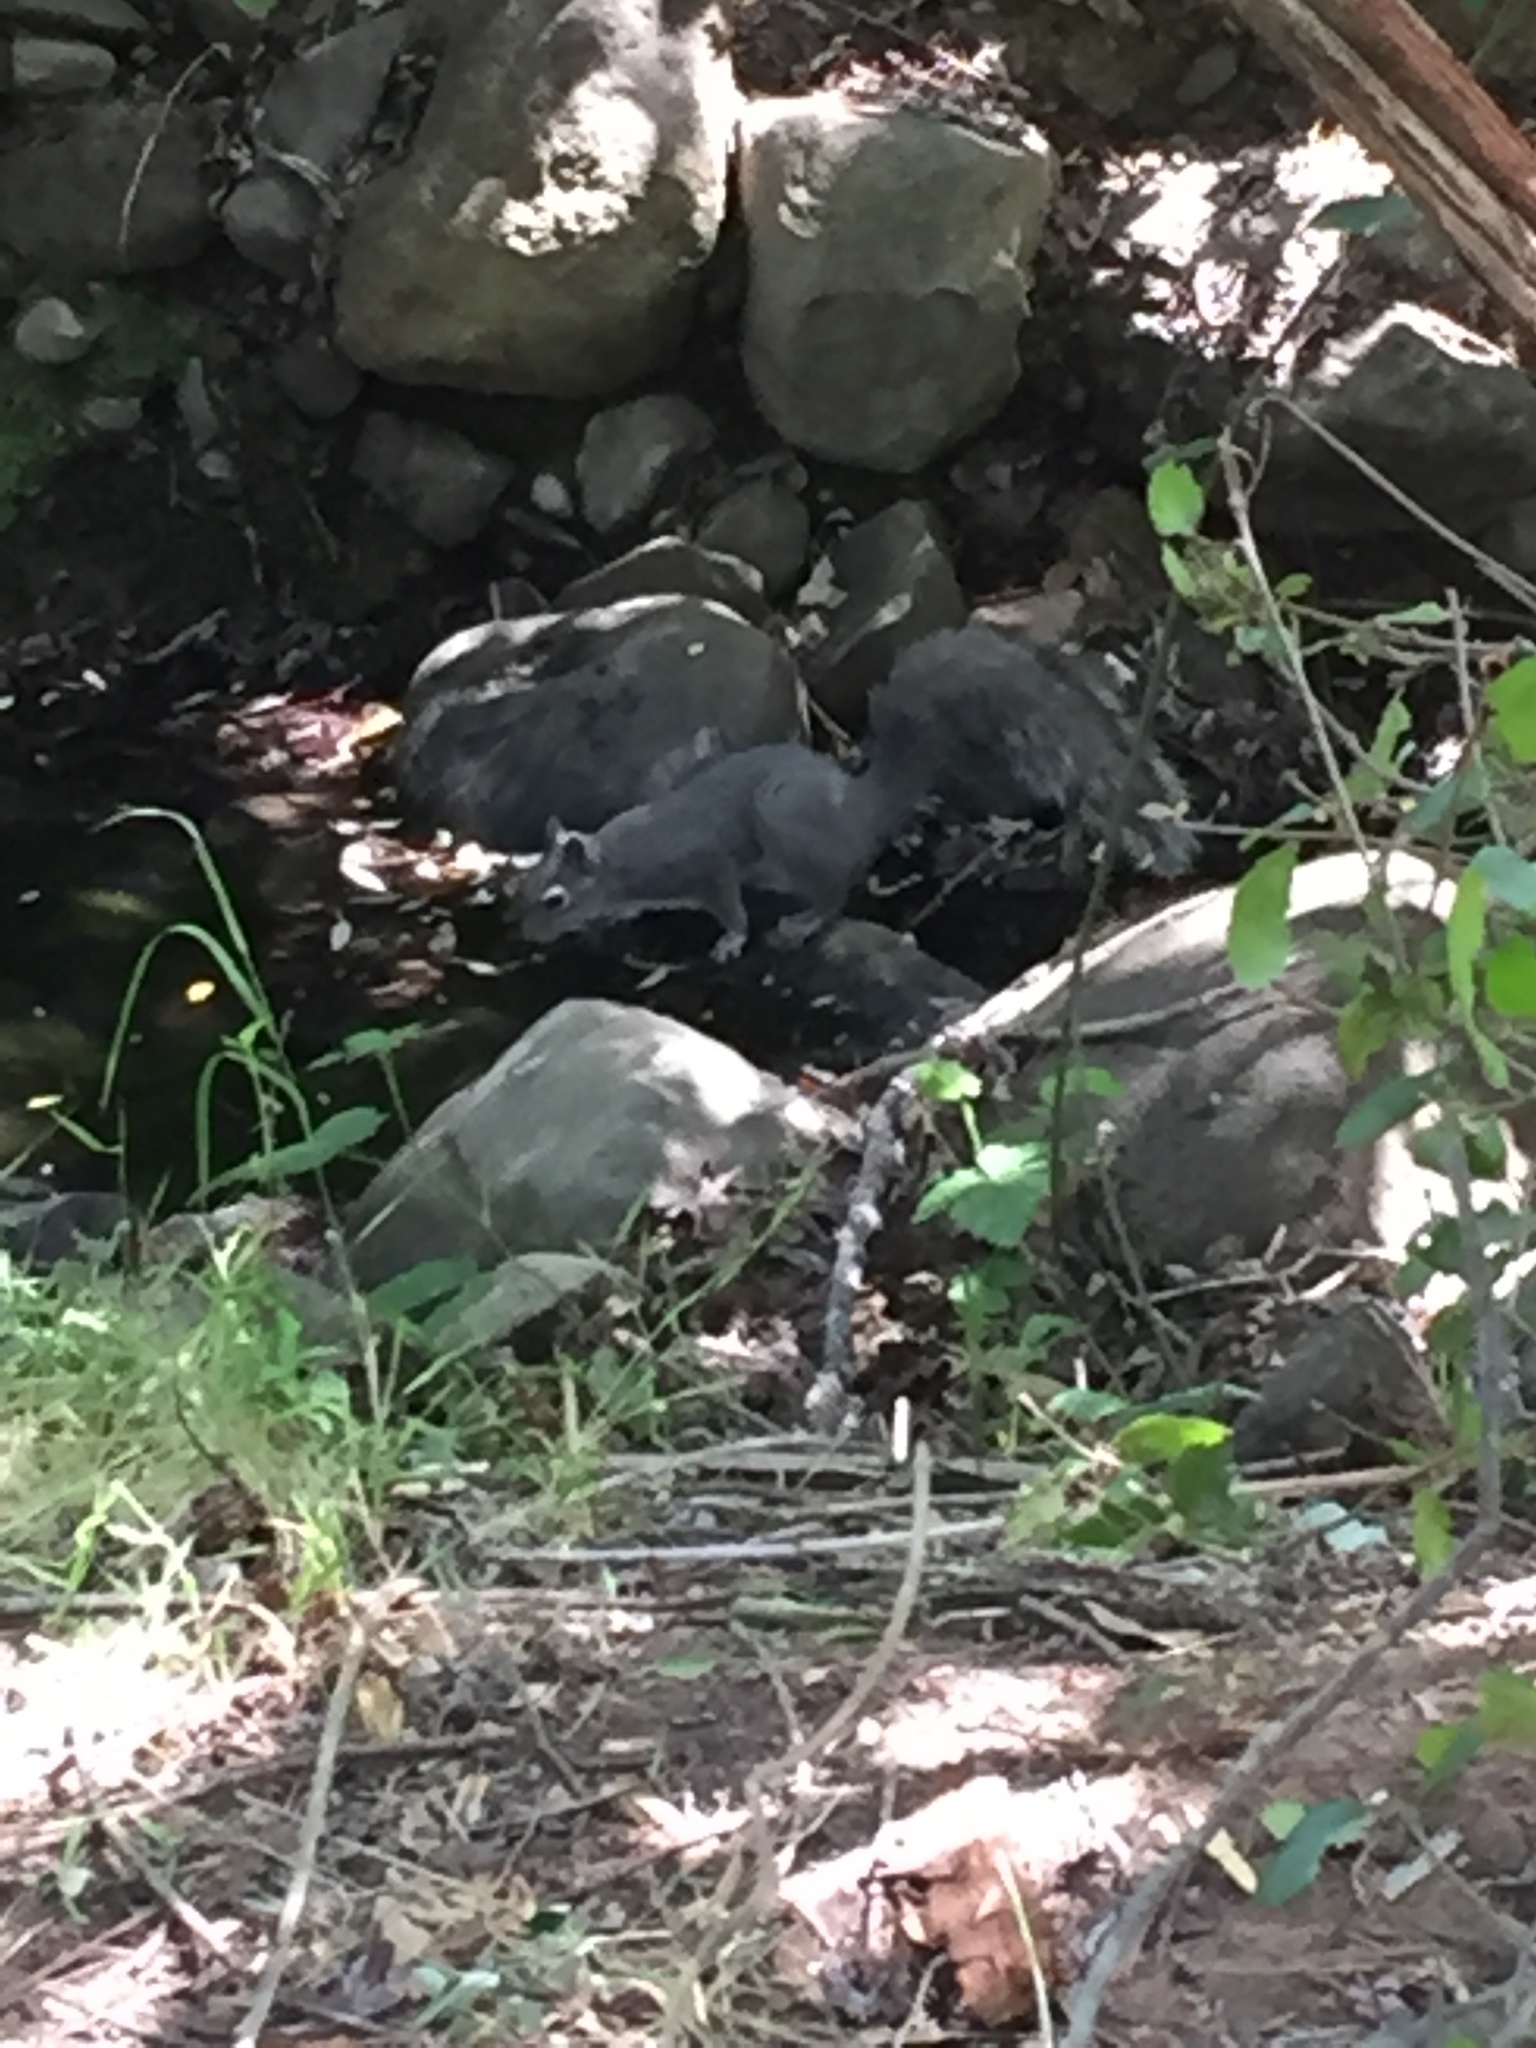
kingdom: Animalia
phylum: Chordata
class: Mammalia
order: Rodentia
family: Sciuridae
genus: Sciurus
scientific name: Sciurus griseus
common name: Western gray squirrel
